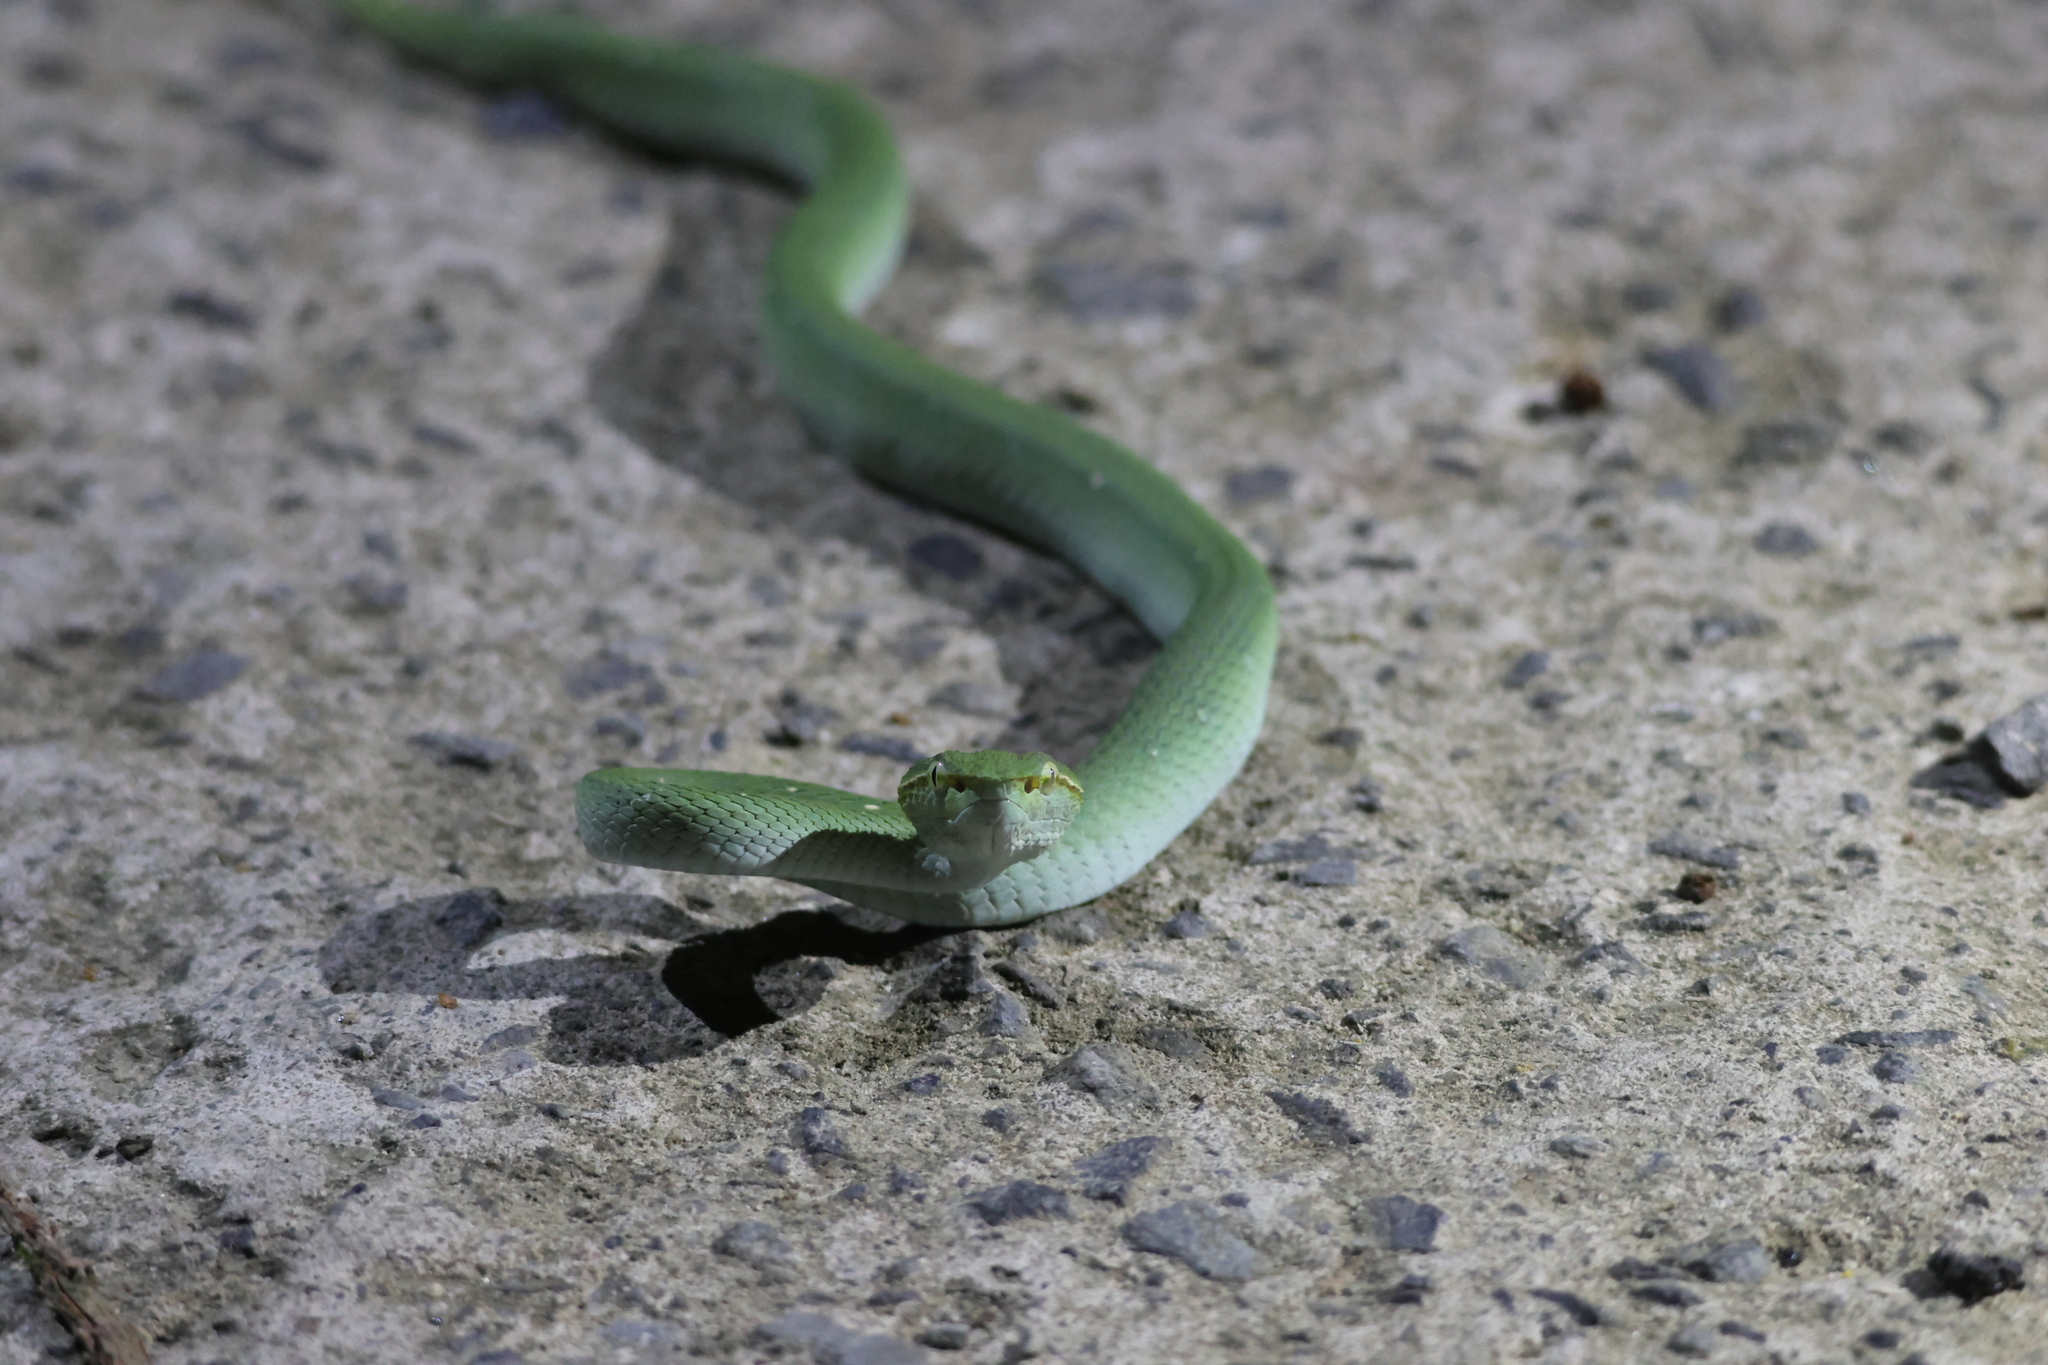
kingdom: Animalia
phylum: Chordata
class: Squamata
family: Viperidae
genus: Tropidolaemus
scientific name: Tropidolaemus subannulatus
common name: North philippine temple pitviper
